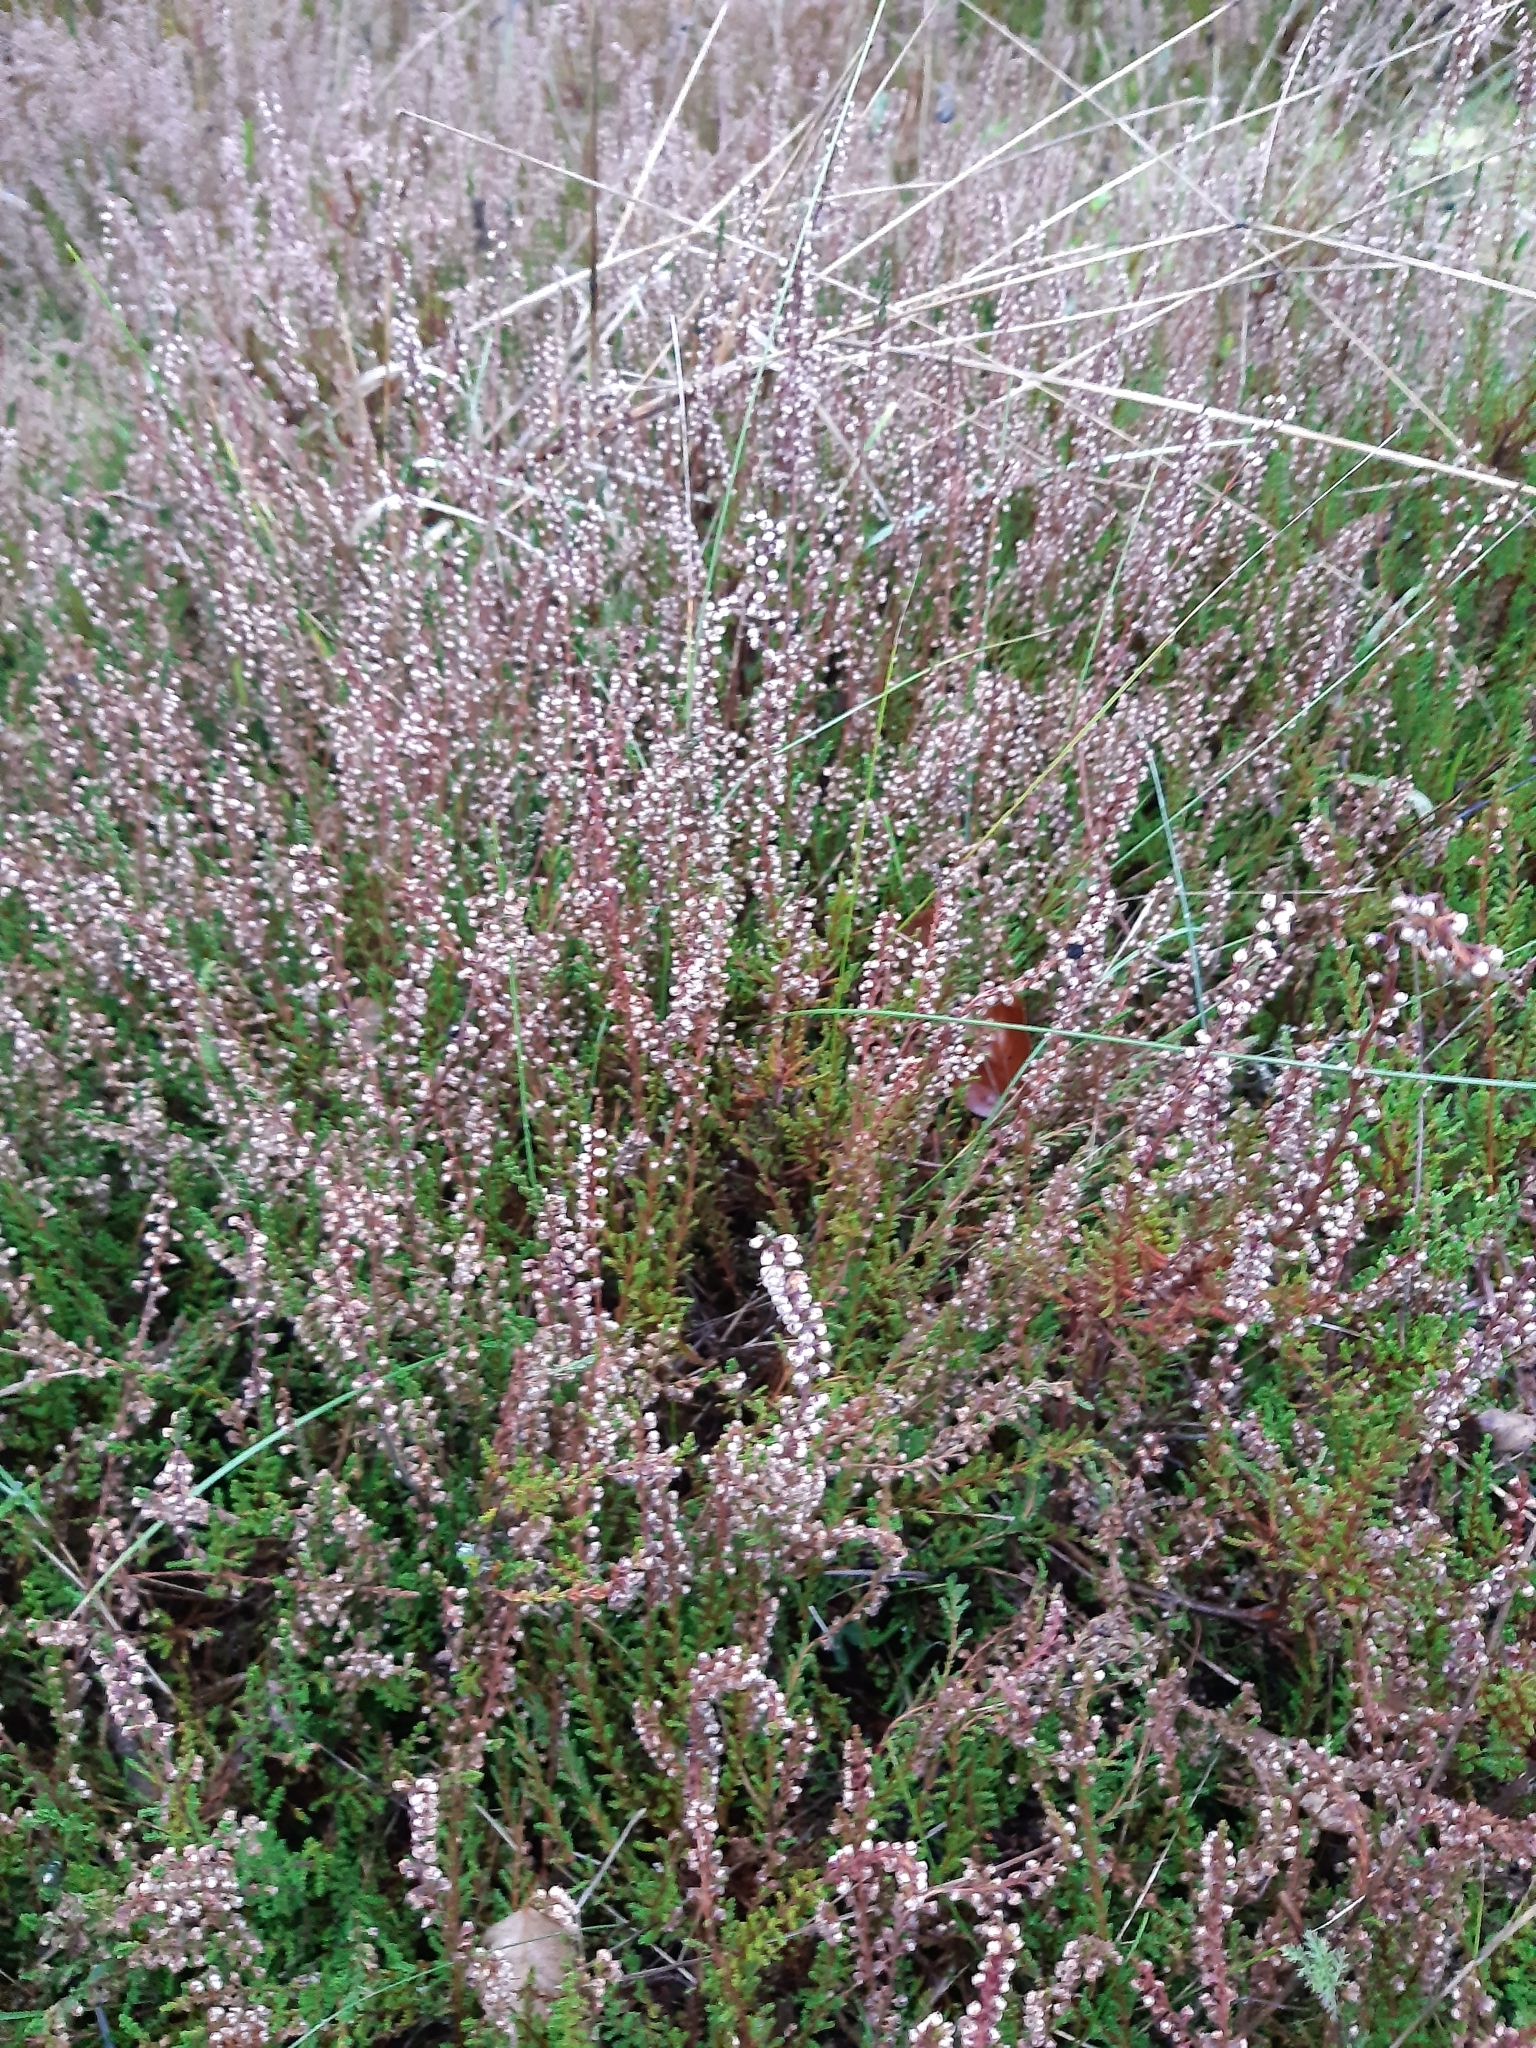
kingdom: Plantae
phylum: Tracheophyta
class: Magnoliopsida
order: Ericales
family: Ericaceae
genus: Calluna
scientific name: Calluna vulgaris
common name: Heather
